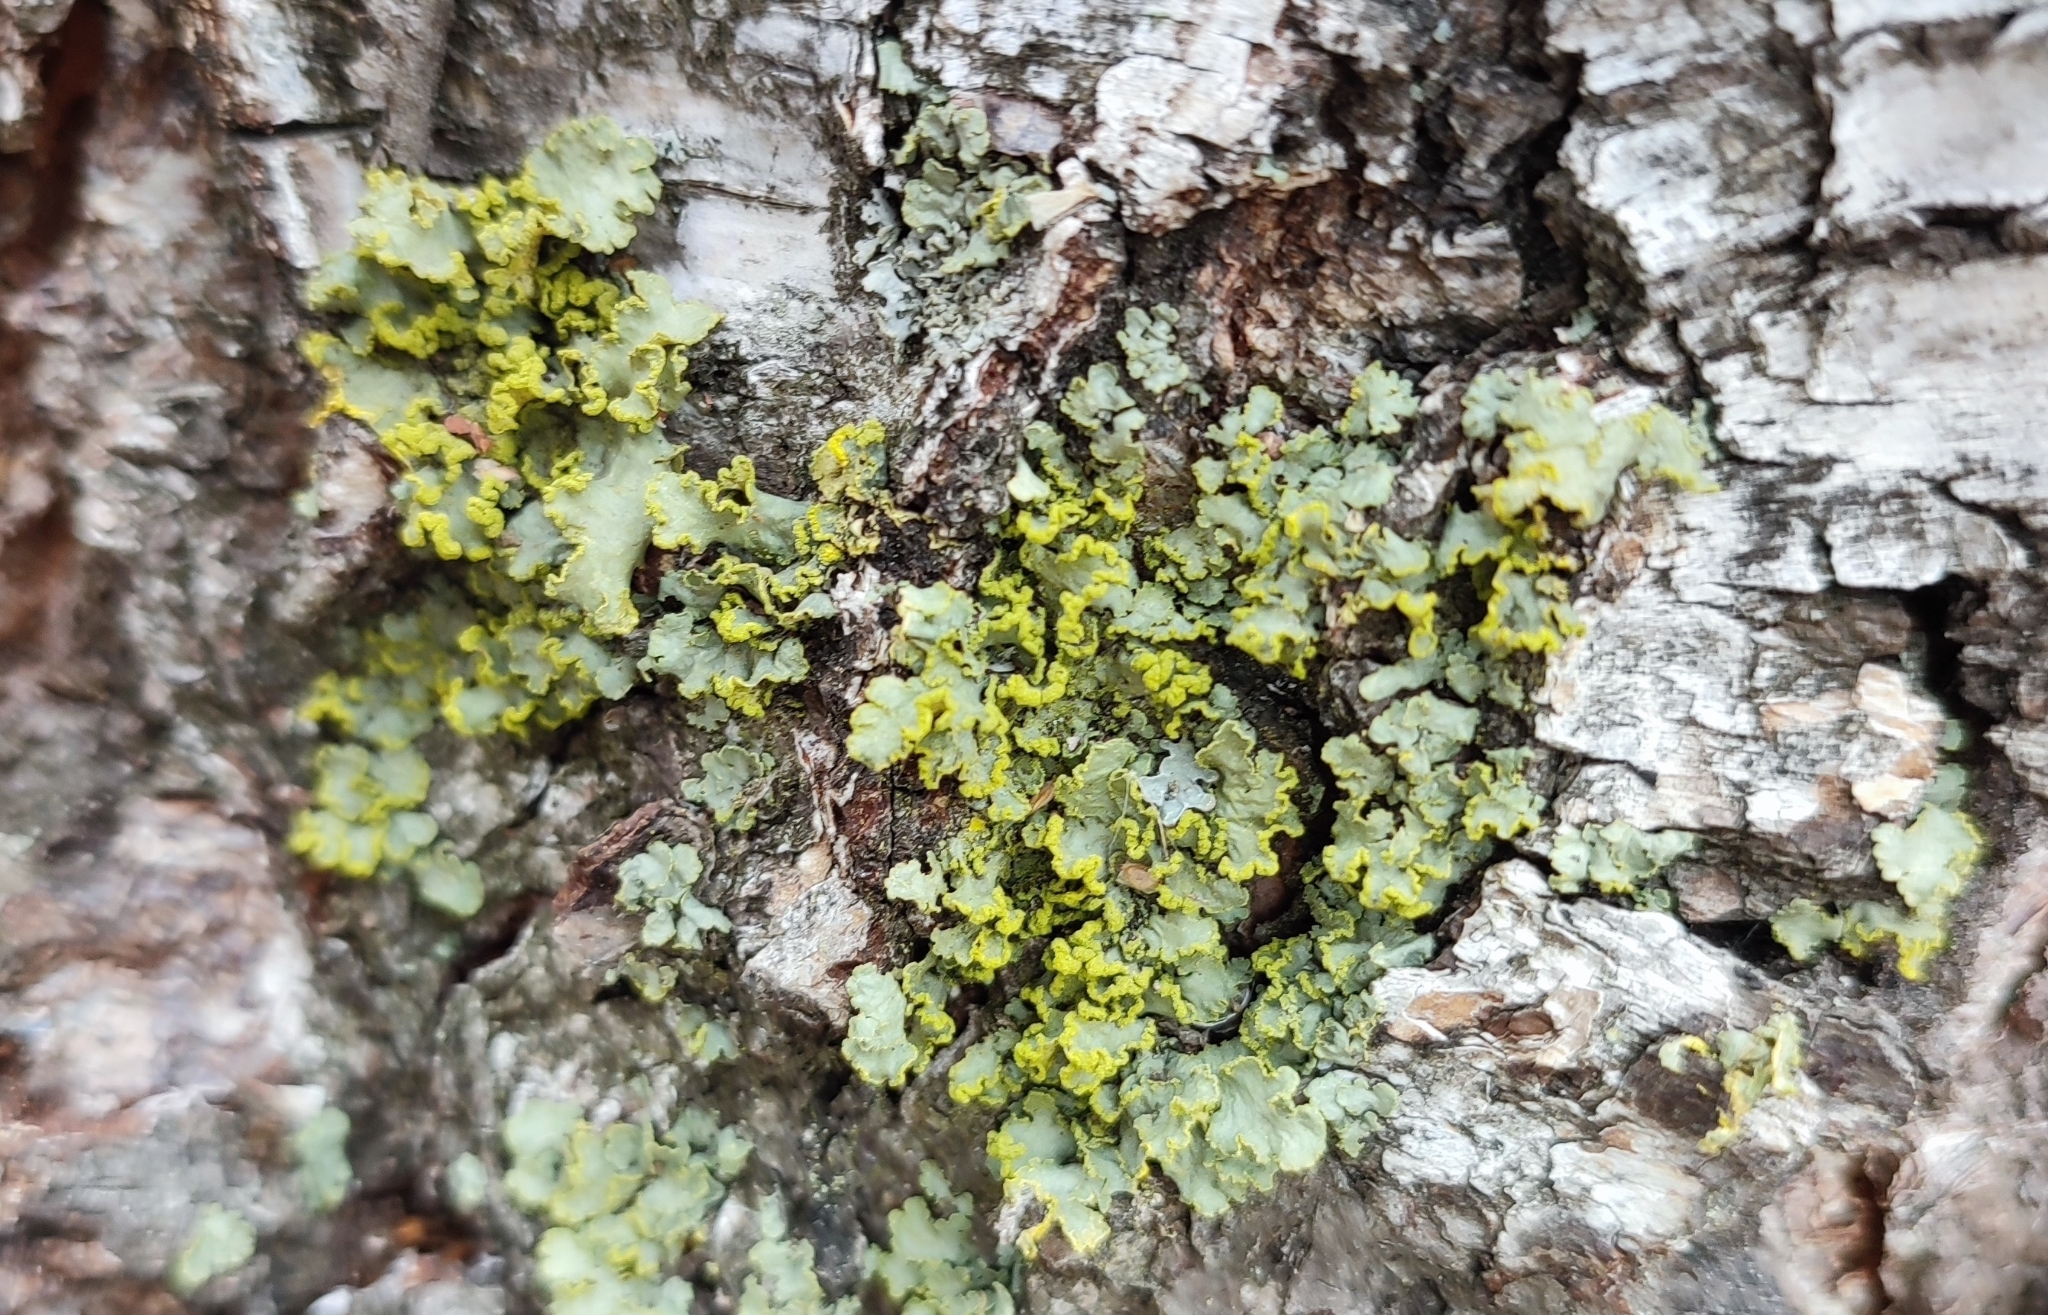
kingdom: Fungi
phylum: Ascomycota
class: Lecanoromycetes
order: Lecanorales
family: Parmeliaceae
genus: Vulpicida
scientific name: Vulpicida pinastri
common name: Powdered sunshine lichen
